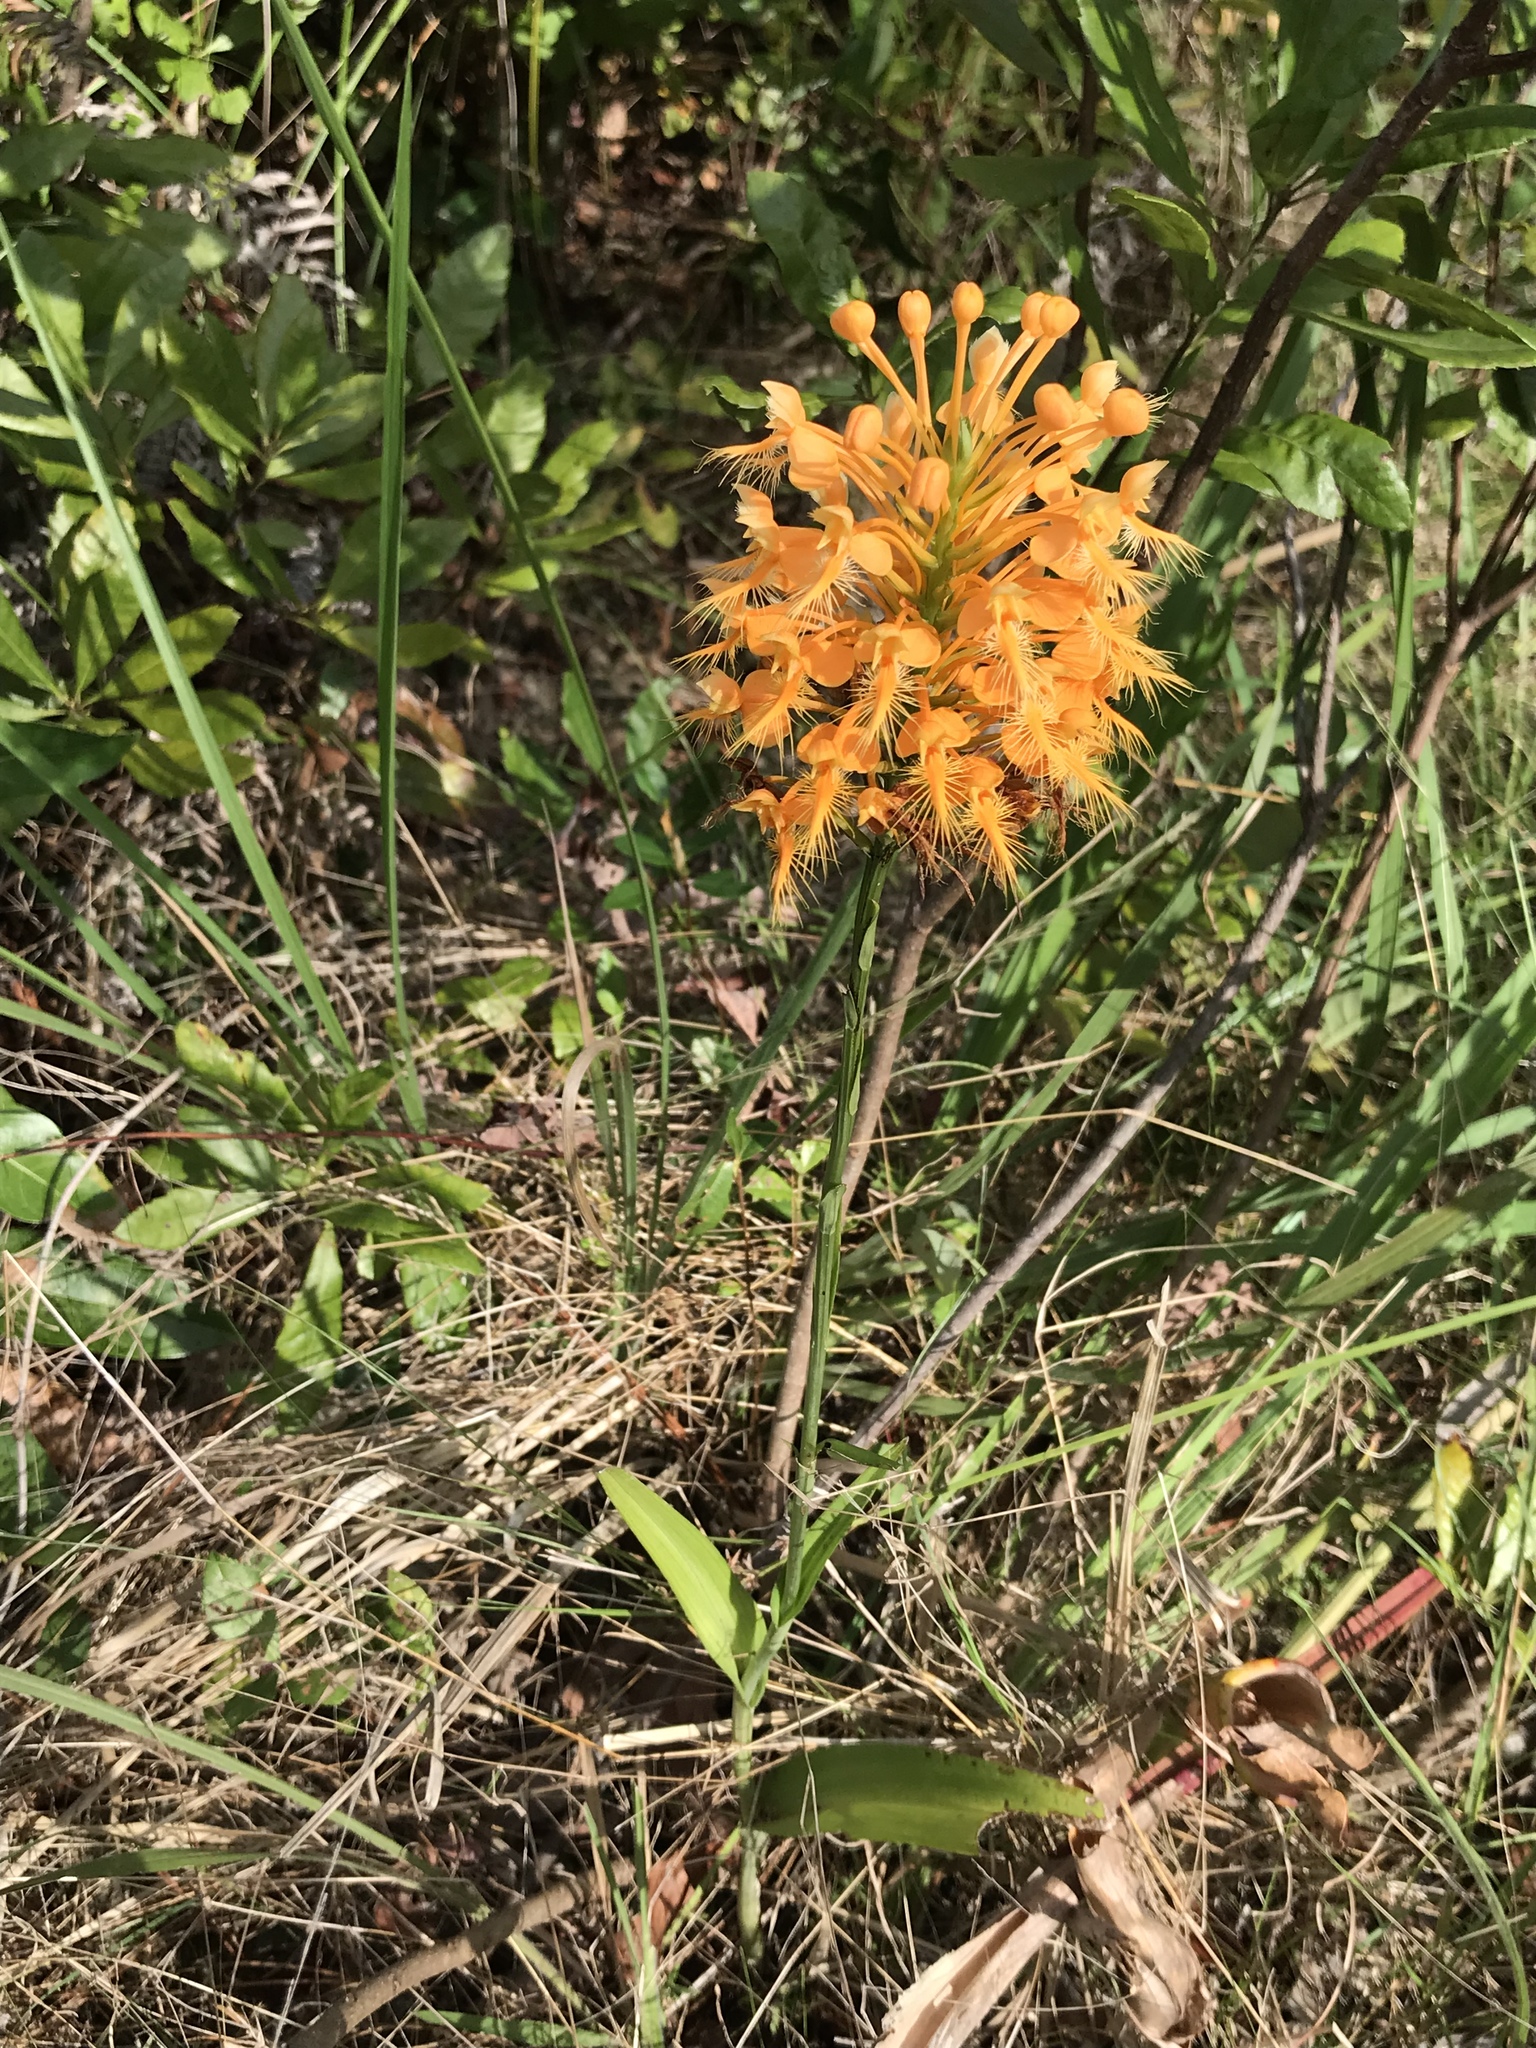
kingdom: Plantae
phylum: Tracheophyta
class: Liliopsida
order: Asparagales
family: Orchidaceae
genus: Platanthera
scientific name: Platanthera ciliaris
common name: Yellow fringed orchid
